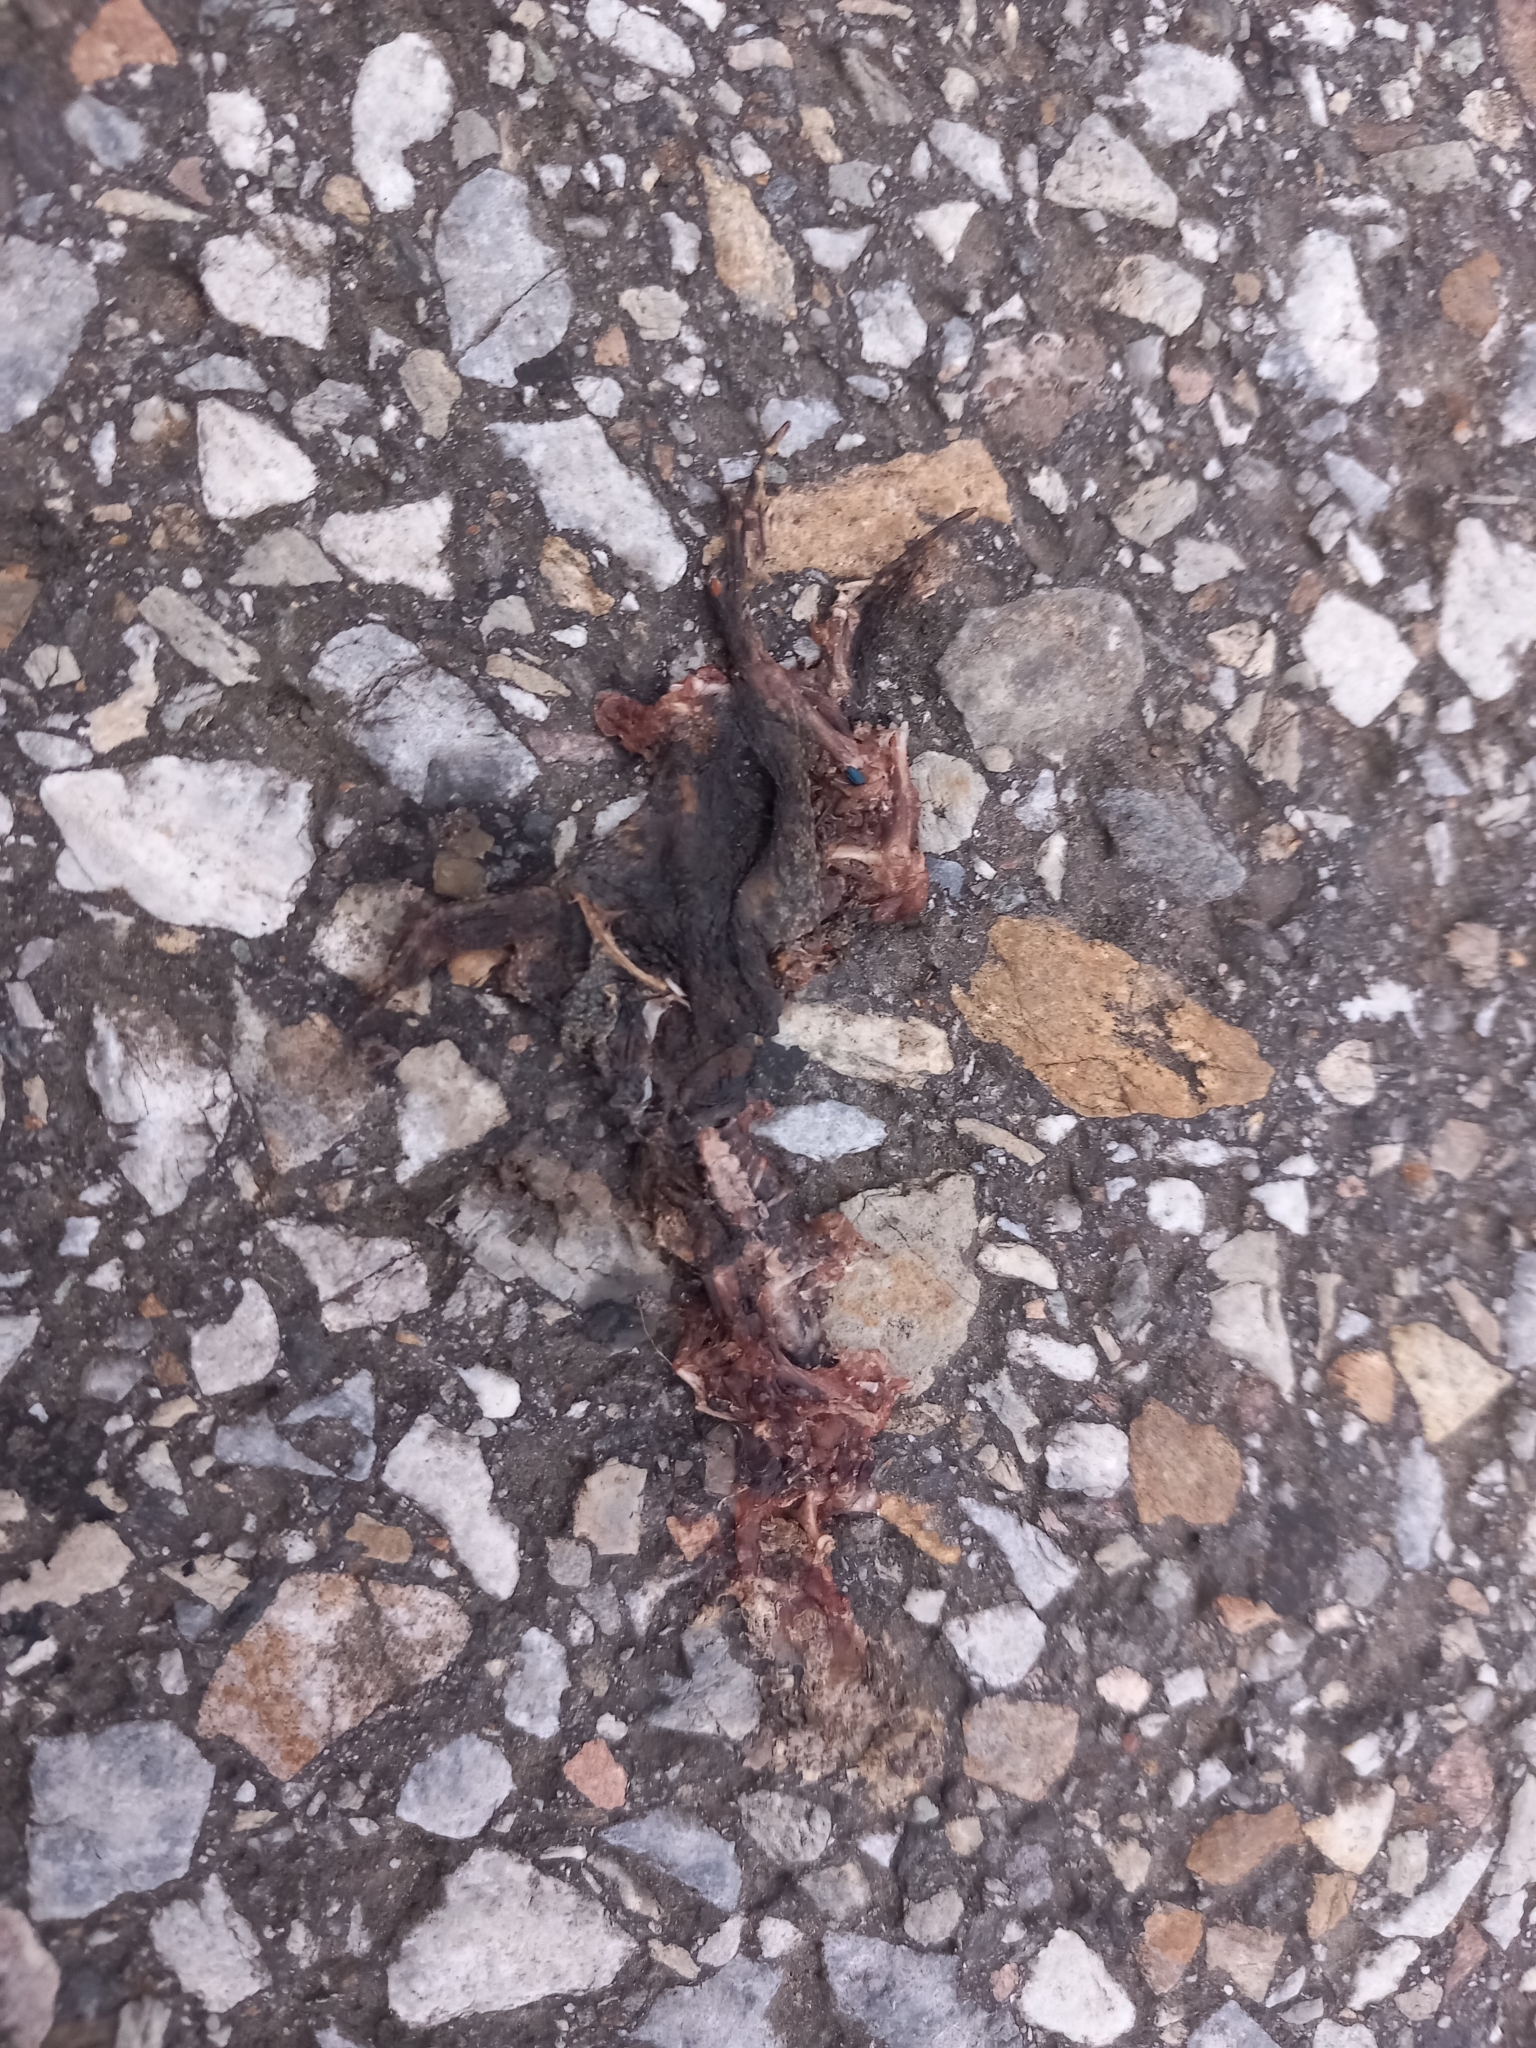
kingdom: Animalia
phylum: Chordata
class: Amphibia
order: Anura
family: Bufonidae
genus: Bufo
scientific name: Bufo bufo
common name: Common toad
